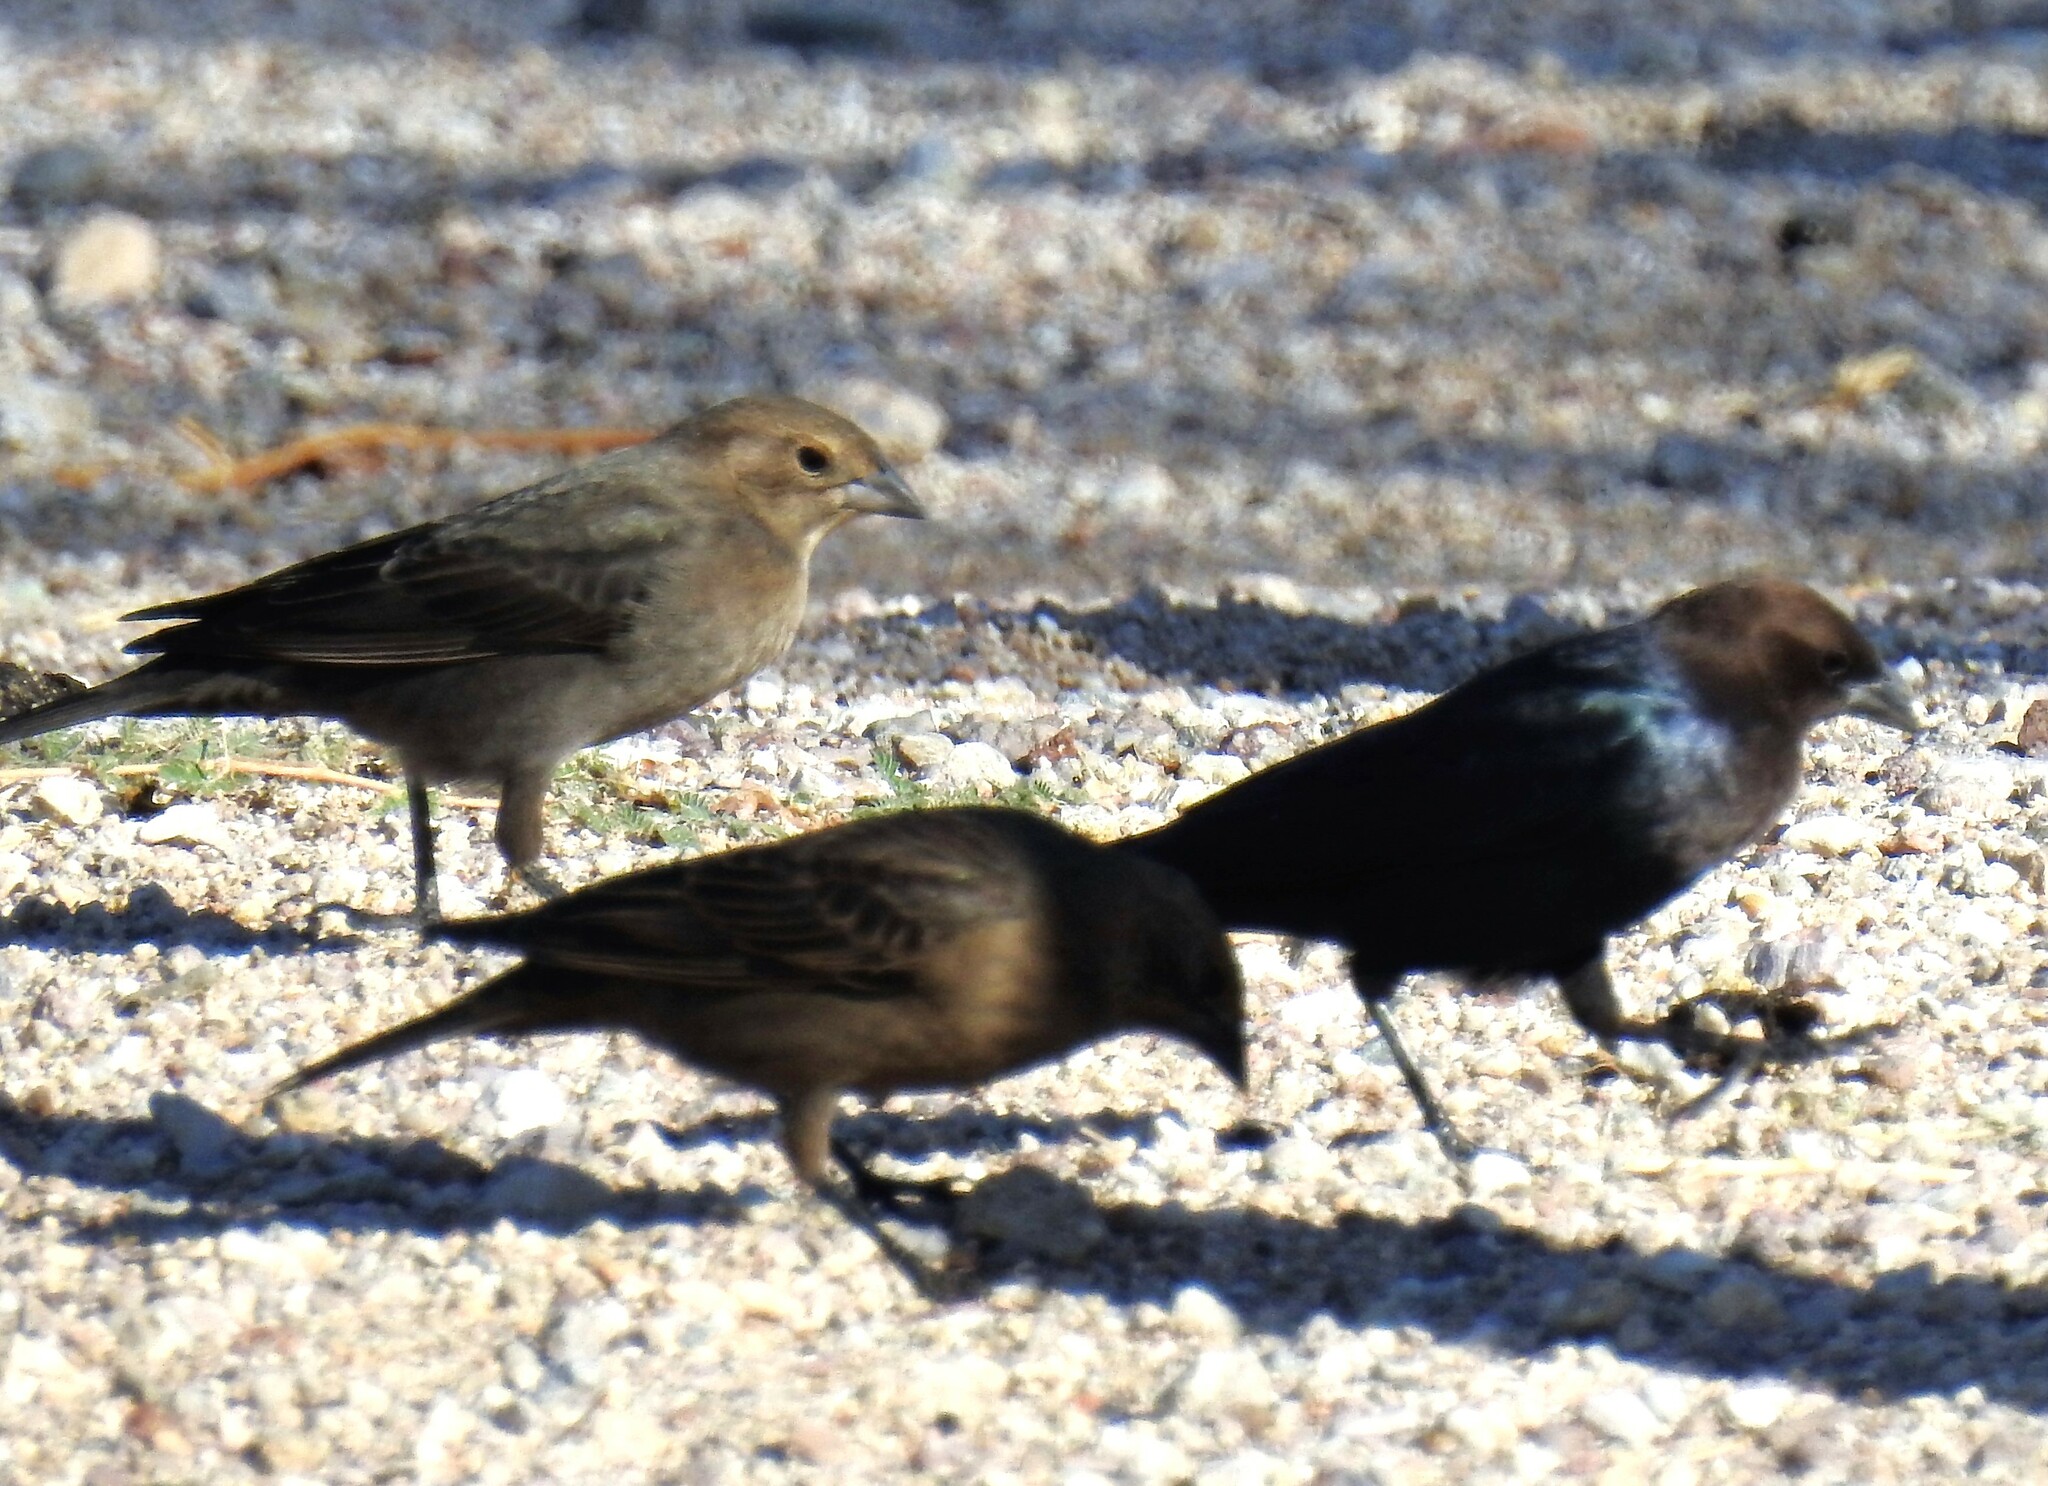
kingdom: Animalia
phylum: Chordata
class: Aves
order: Passeriformes
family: Icteridae
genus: Molothrus
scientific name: Molothrus ater
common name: Brown-headed cowbird
